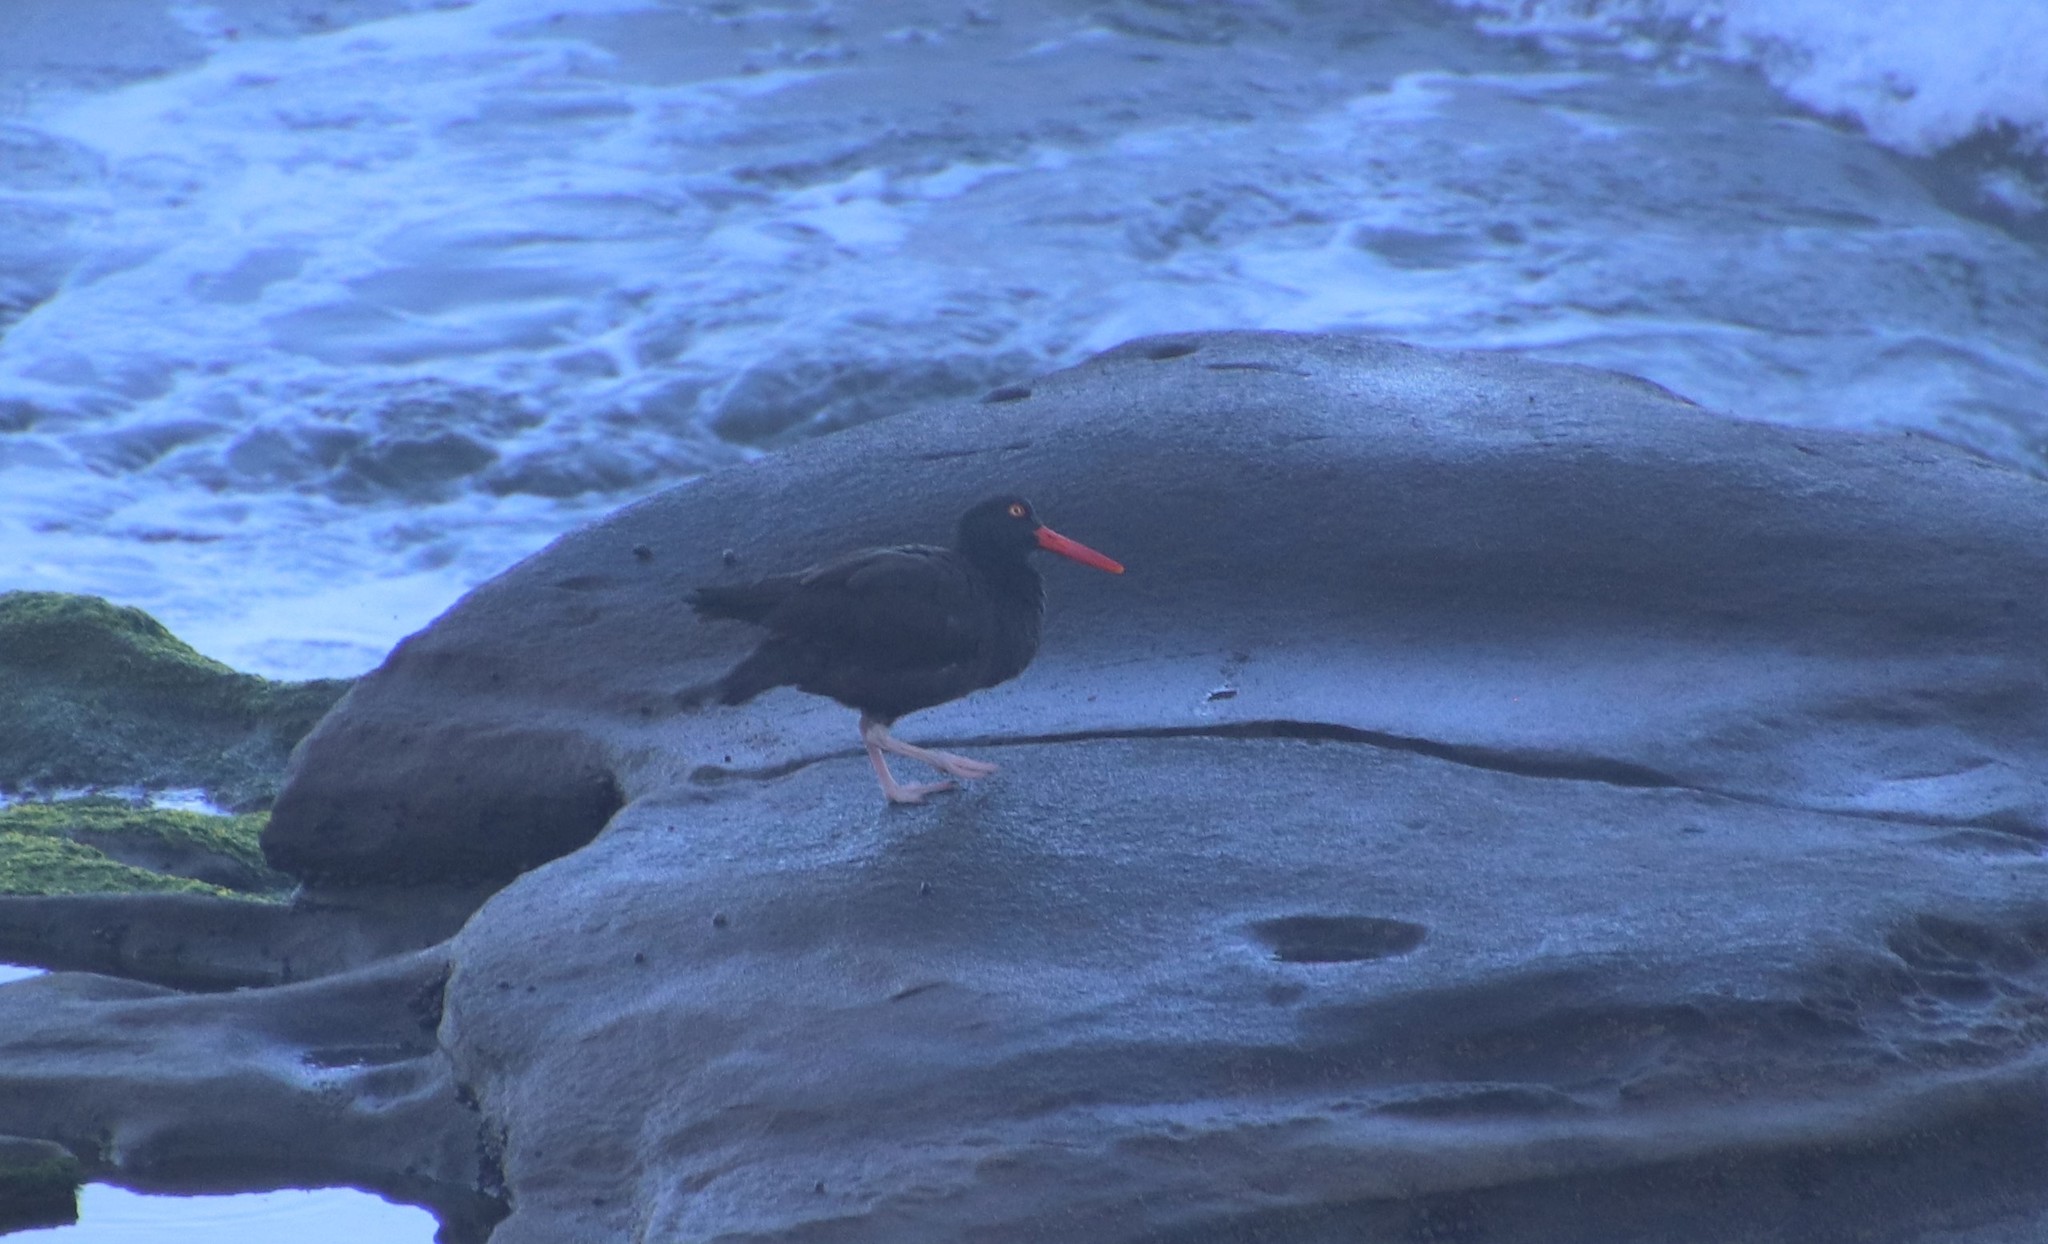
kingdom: Animalia
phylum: Chordata
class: Aves
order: Charadriiformes
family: Haematopodidae
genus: Haematopus
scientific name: Haematopus bachmani
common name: Black oystercatcher
